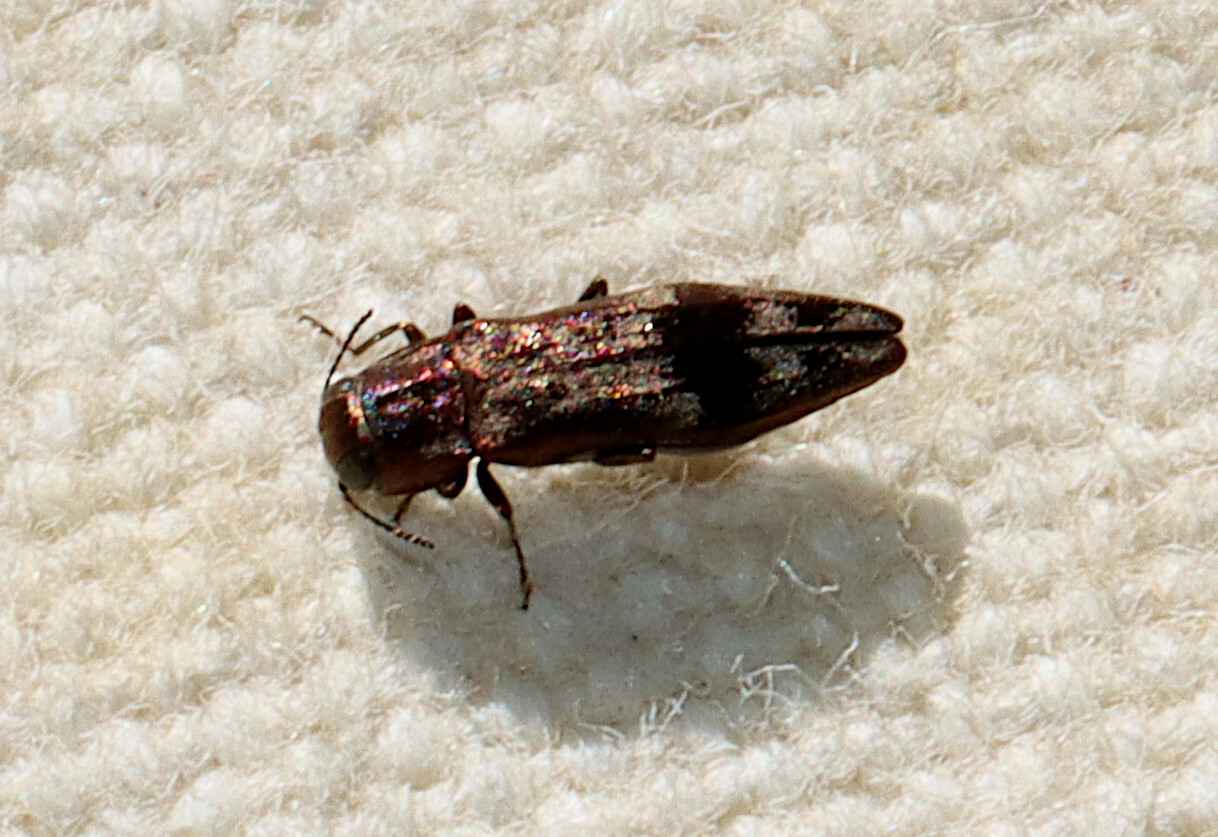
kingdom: Animalia
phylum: Arthropoda
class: Insecta
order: Coleoptera
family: Buprestidae
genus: Agrilus
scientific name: Agrilus lecontei
